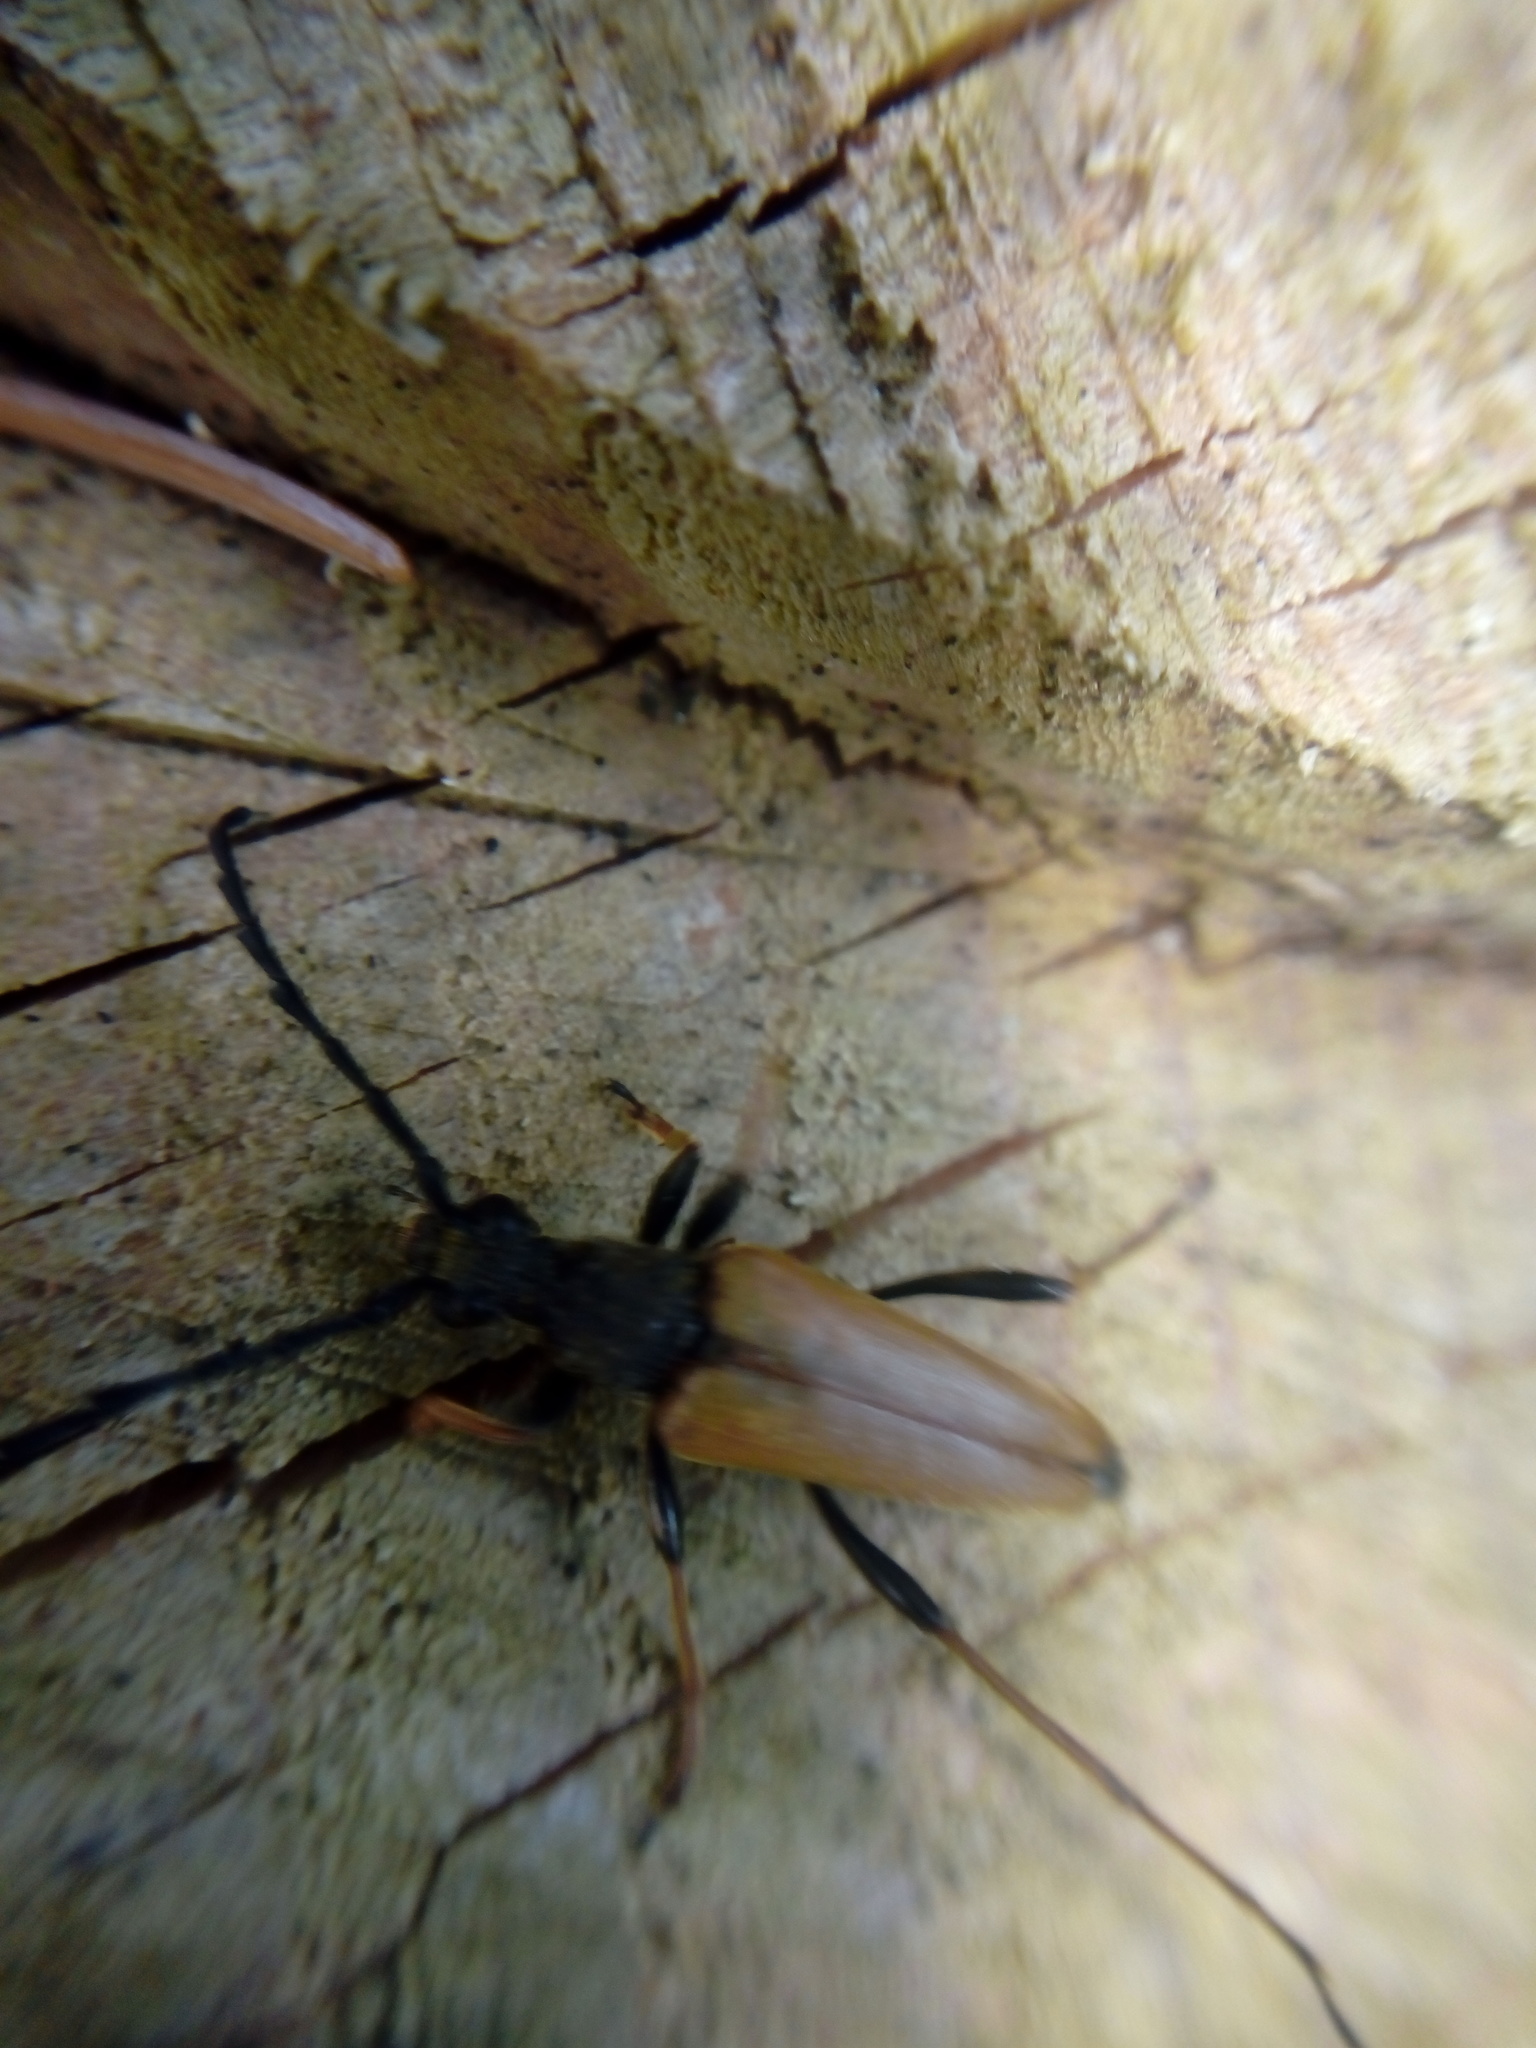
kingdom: Animalia
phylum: Arthropoda
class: Insecta
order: Coleoptera
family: Cerambycidae
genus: Stictoleptura
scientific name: Stictoleptura rubra
